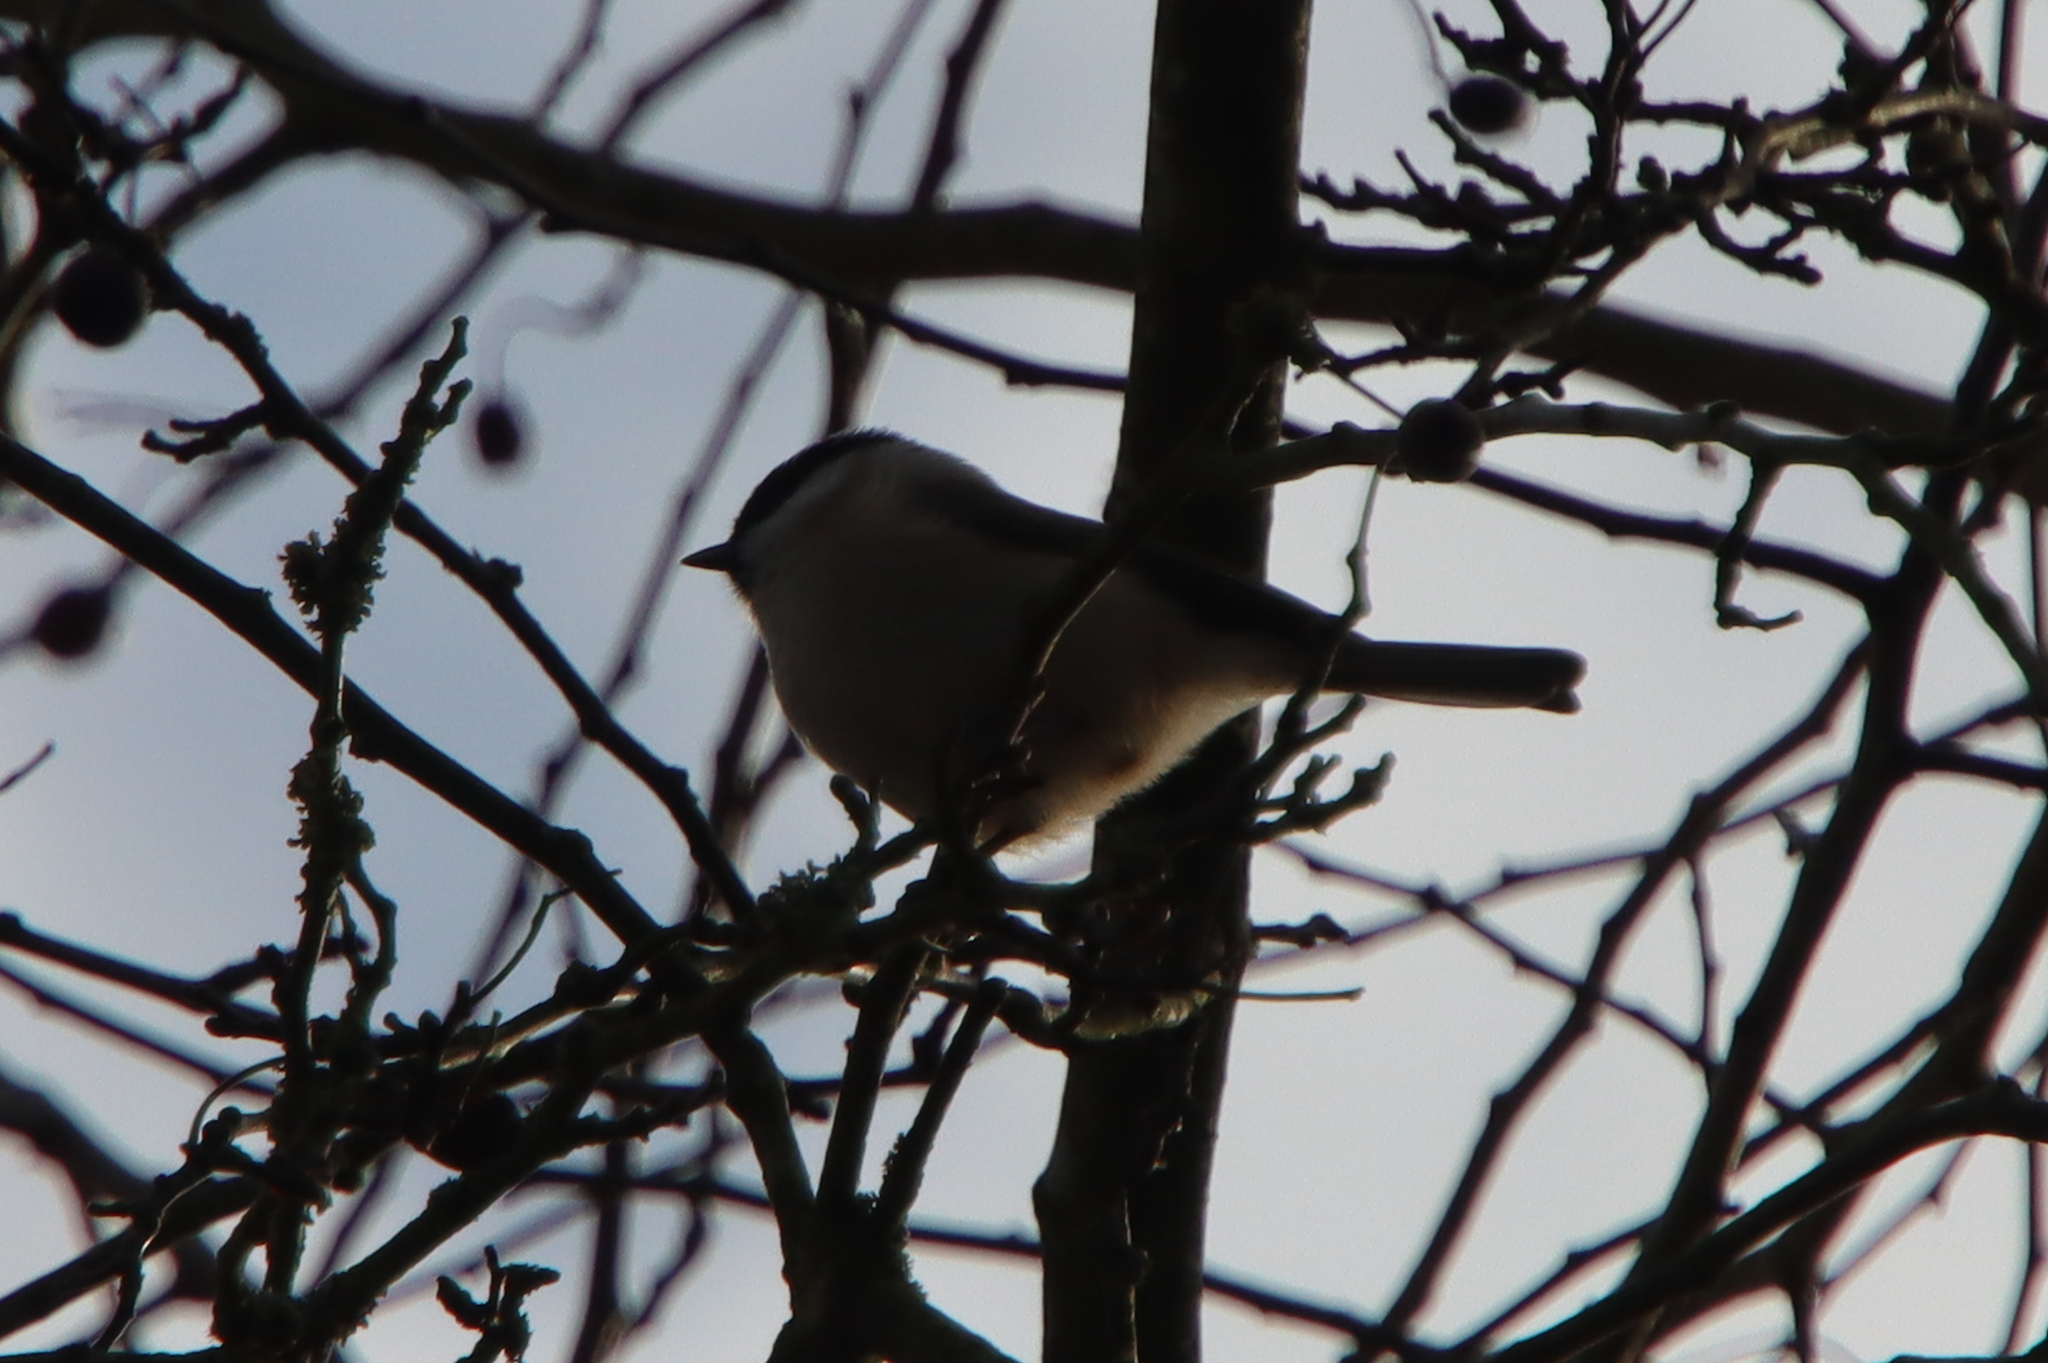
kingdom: Animalia
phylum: Chordata
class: Aves
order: Passeriformes
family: Paridae
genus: Poecile
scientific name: Poecile palustris
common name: Marsh tit
